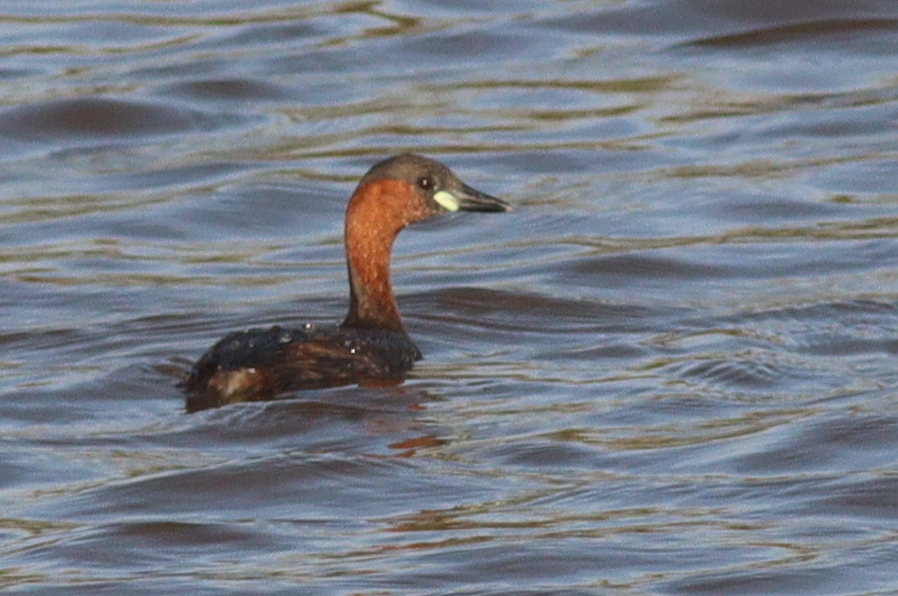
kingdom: Animalia
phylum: Chordata
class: Aves
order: Podicipediformes
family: Podicipedidae
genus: Tachybaptus
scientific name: Tachybaptus ruficollis
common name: Little grebe
